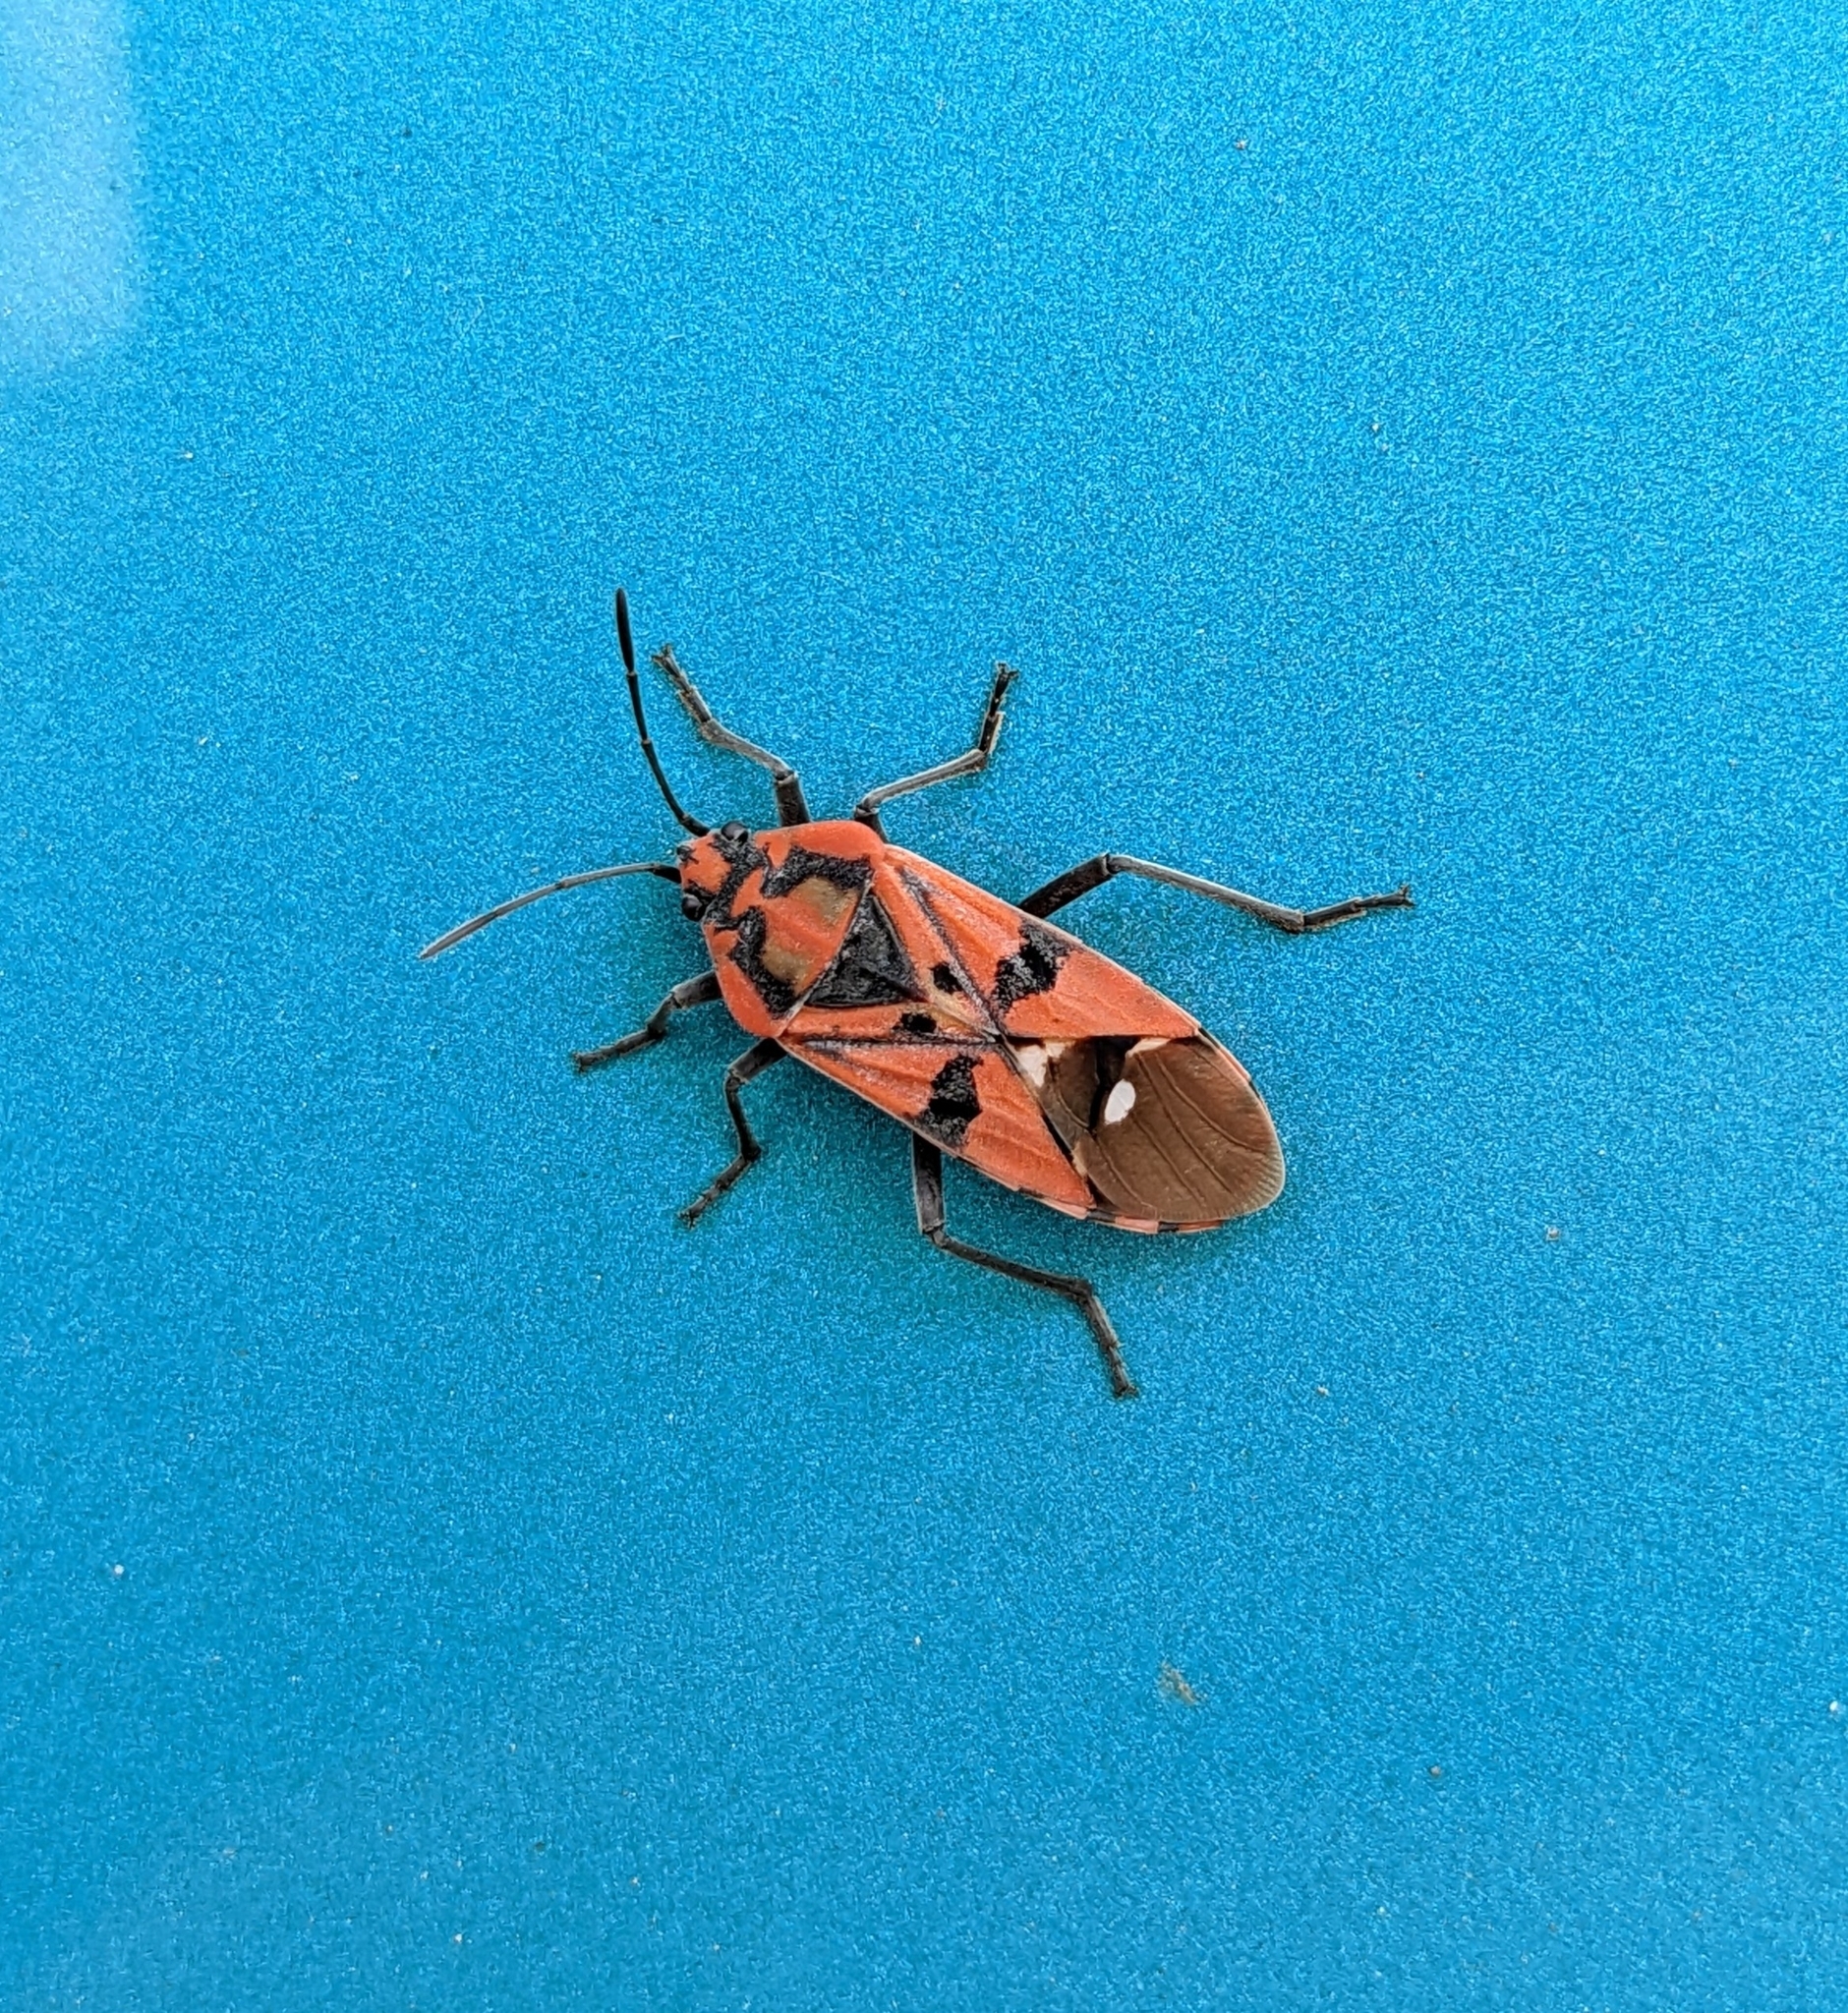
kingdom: Animalia
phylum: Arthropoda
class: Insecta
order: Hemiptera
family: Lygaeidae
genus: Spilostethus
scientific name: Spilostethus pandurus
